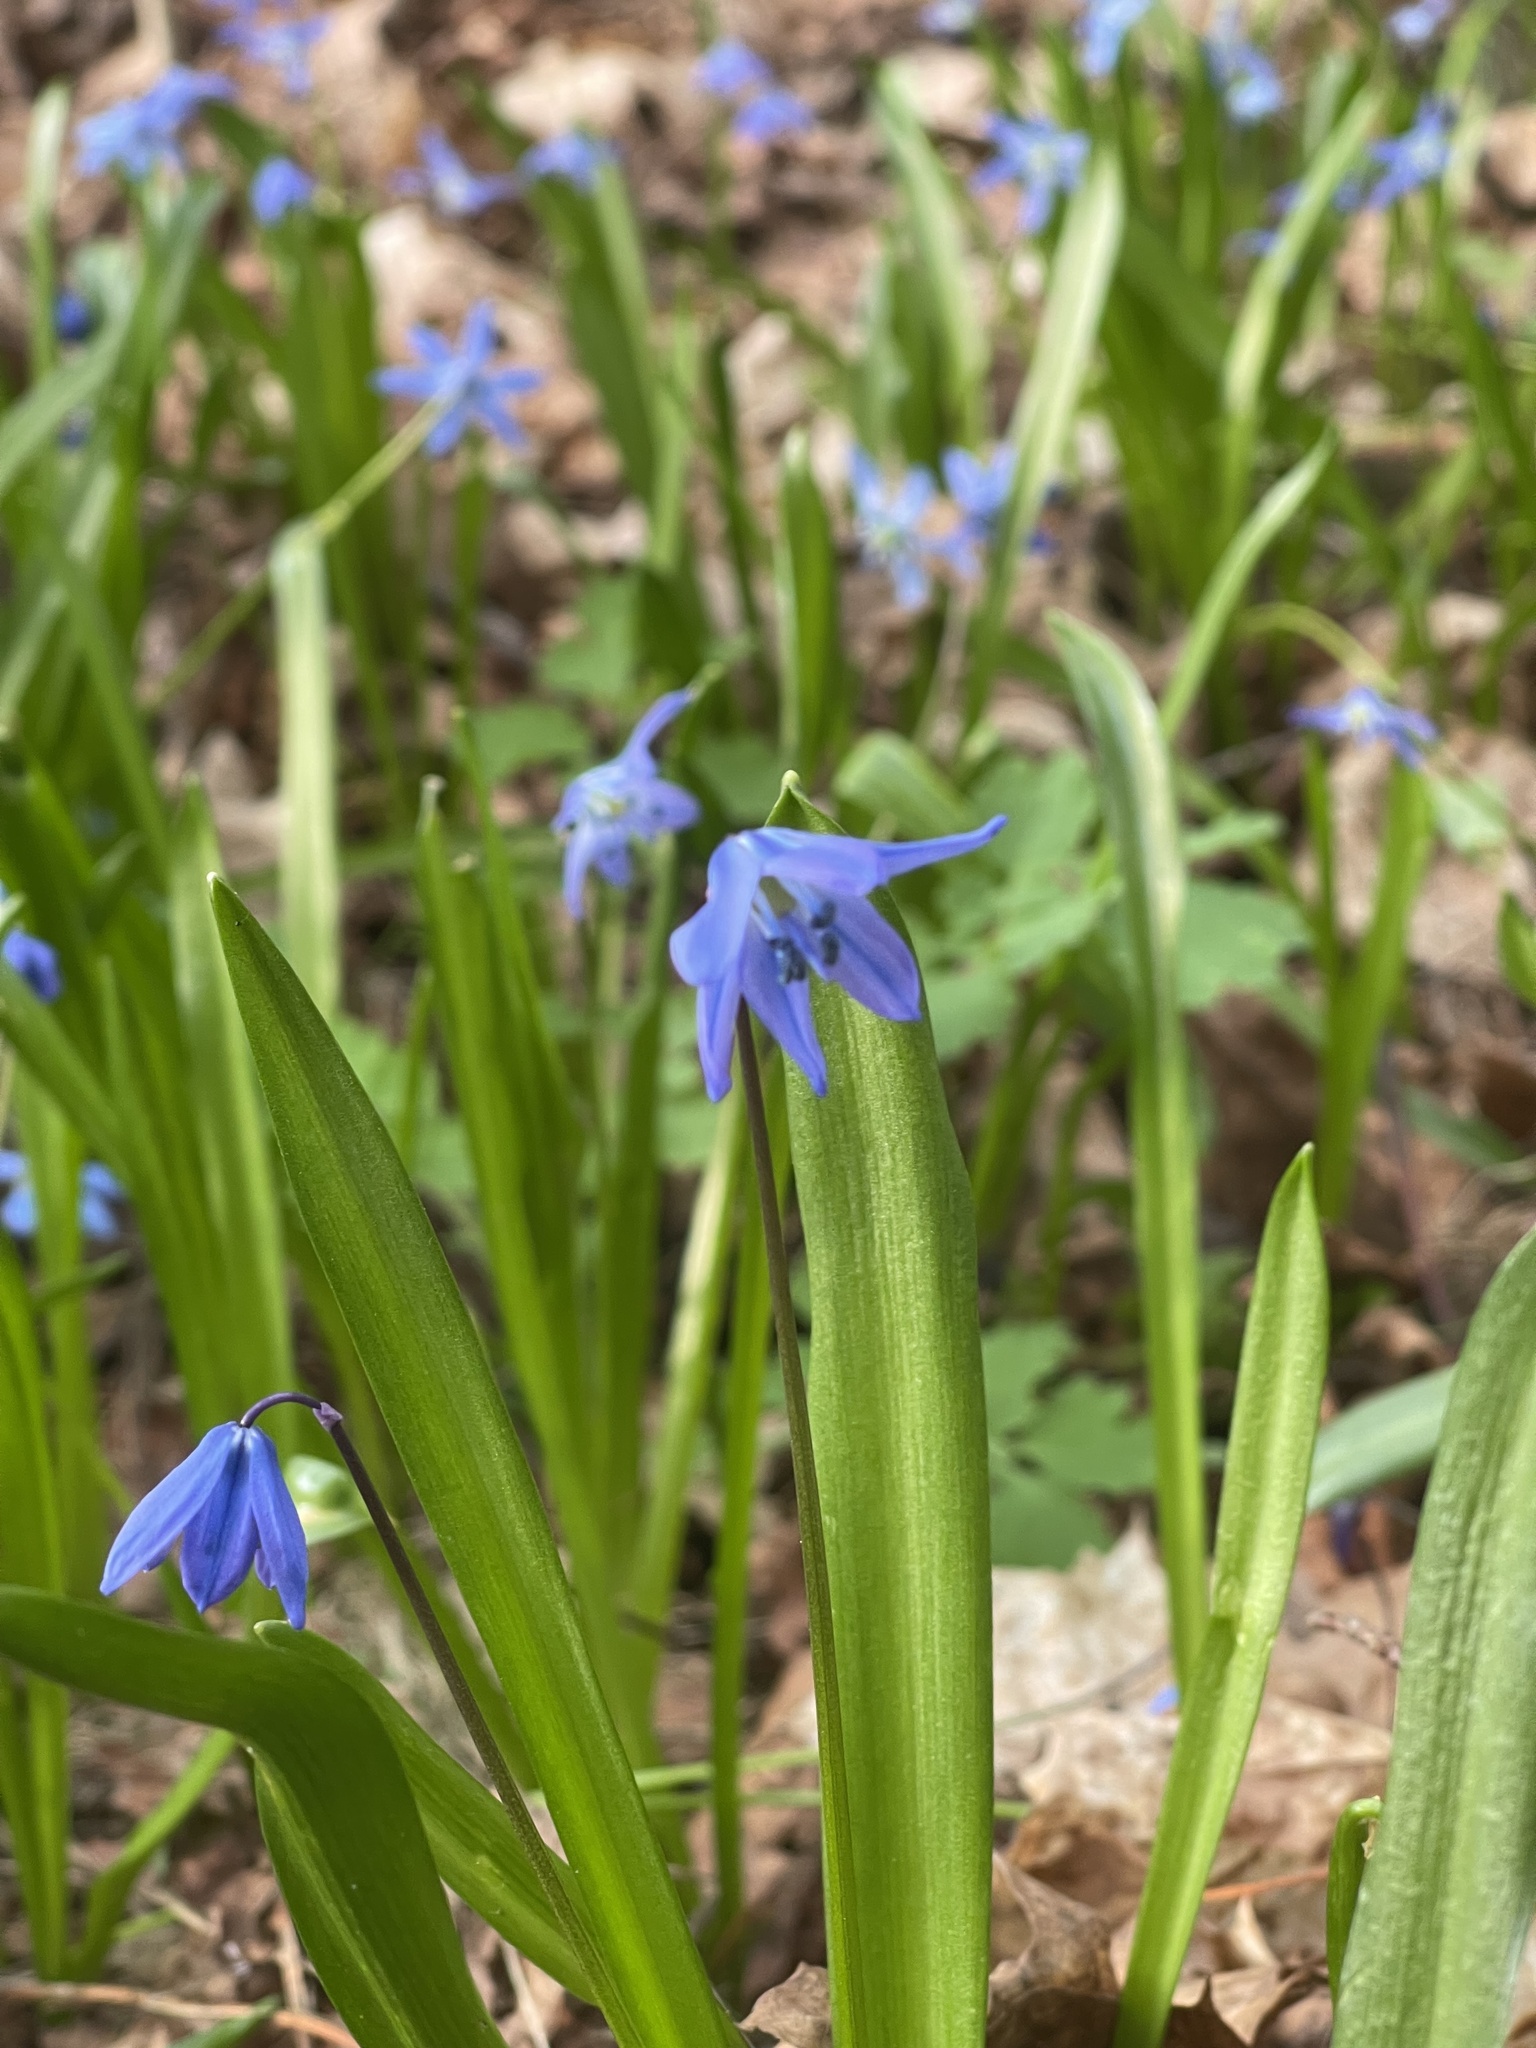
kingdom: Plantae
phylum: Tracheophyta
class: Liliopsida
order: Asparagales
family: Asparagaceae
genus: Scilla
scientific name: Scilla siberica
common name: Siberian squill
